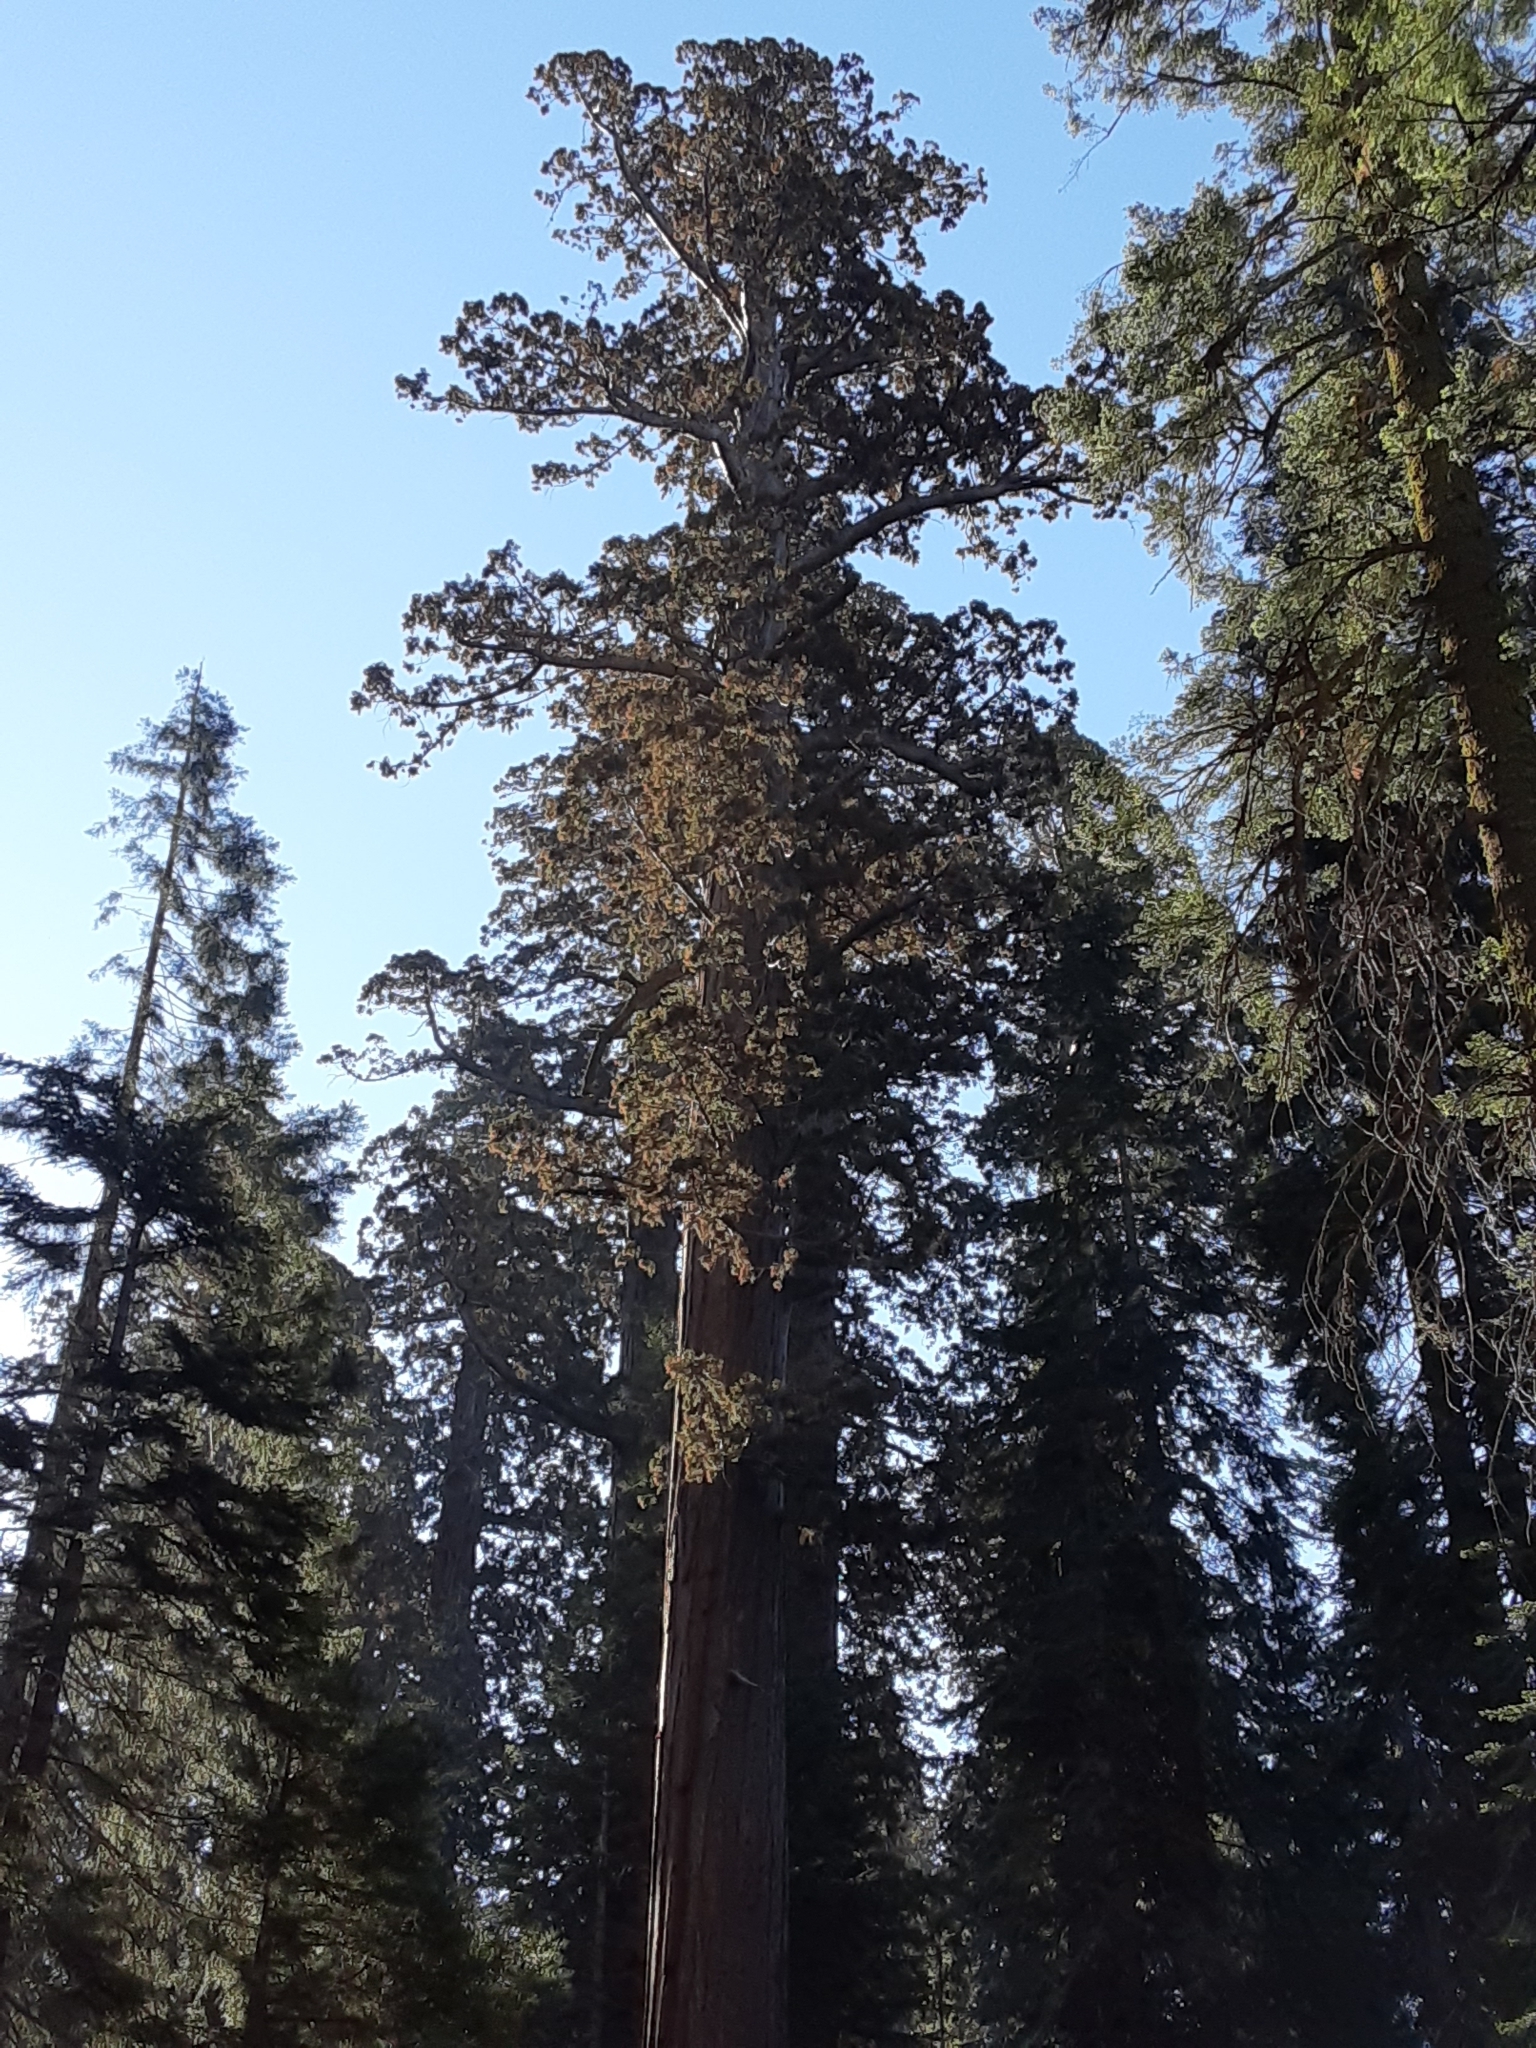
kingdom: Plantae
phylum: Tracheophyta
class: Pinopsida
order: Pinales
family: Cupressaceae
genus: Sequoiadendron
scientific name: Sequoiadendron giganteum
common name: Wellingtonia
